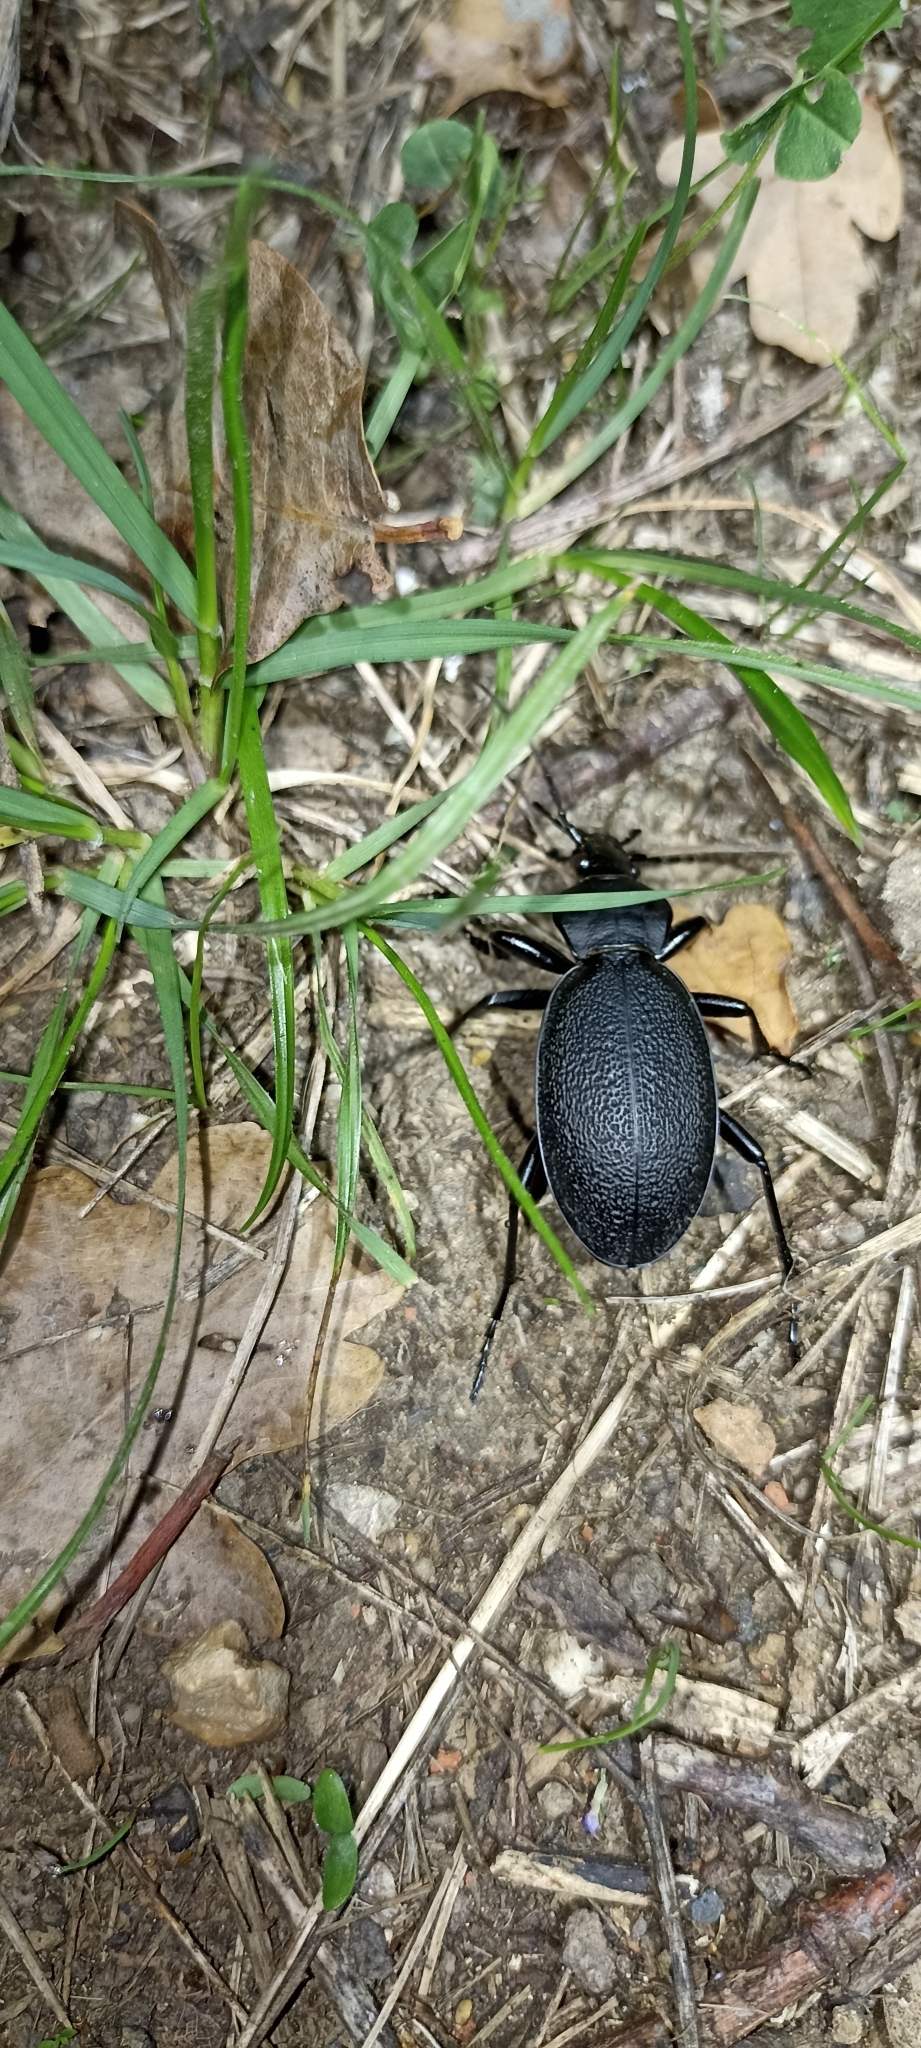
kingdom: Animalia
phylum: Arthropoda
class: Insecta
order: Coleoptera
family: Carabidae
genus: Carabus
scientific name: Carabus coriaceus
